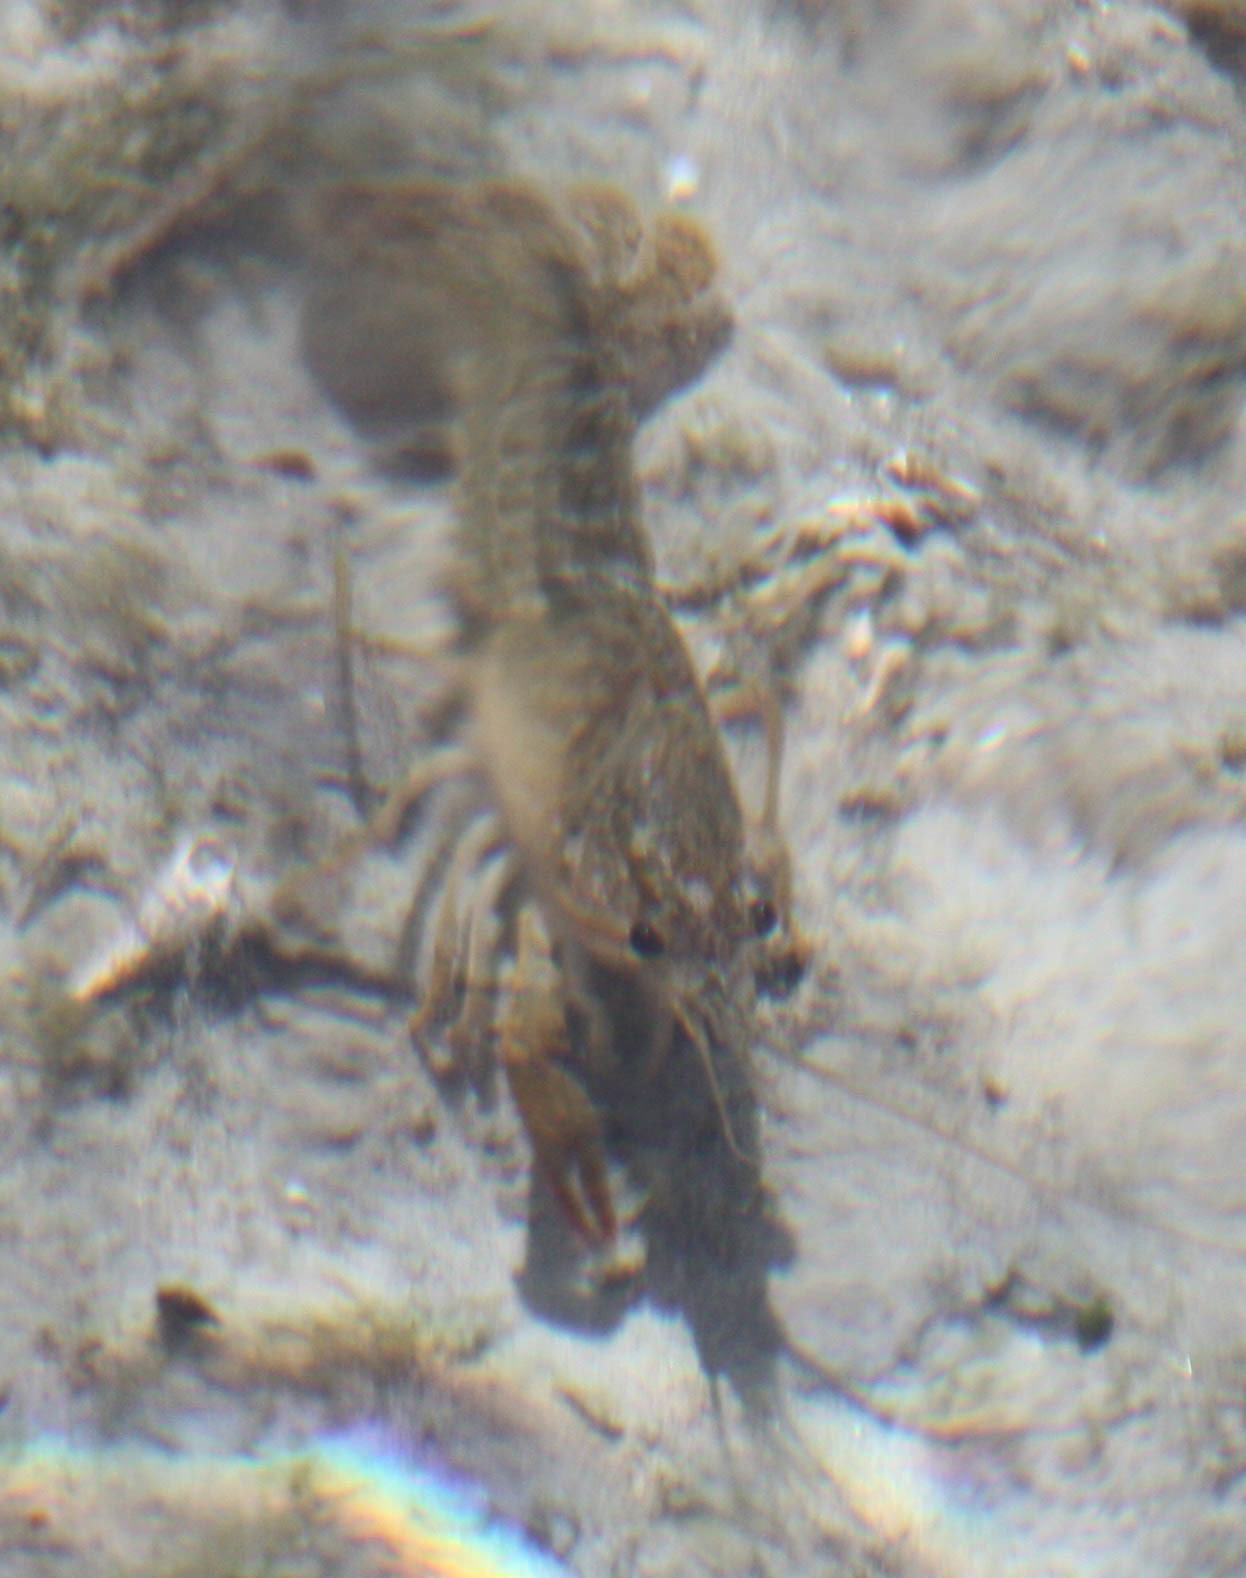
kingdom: Animalia
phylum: Arthropoda
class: Malacostraca
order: Decapoda
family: Cambaridae
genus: Procambarus
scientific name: Procambarus clarkii
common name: Red swamp crayfish
